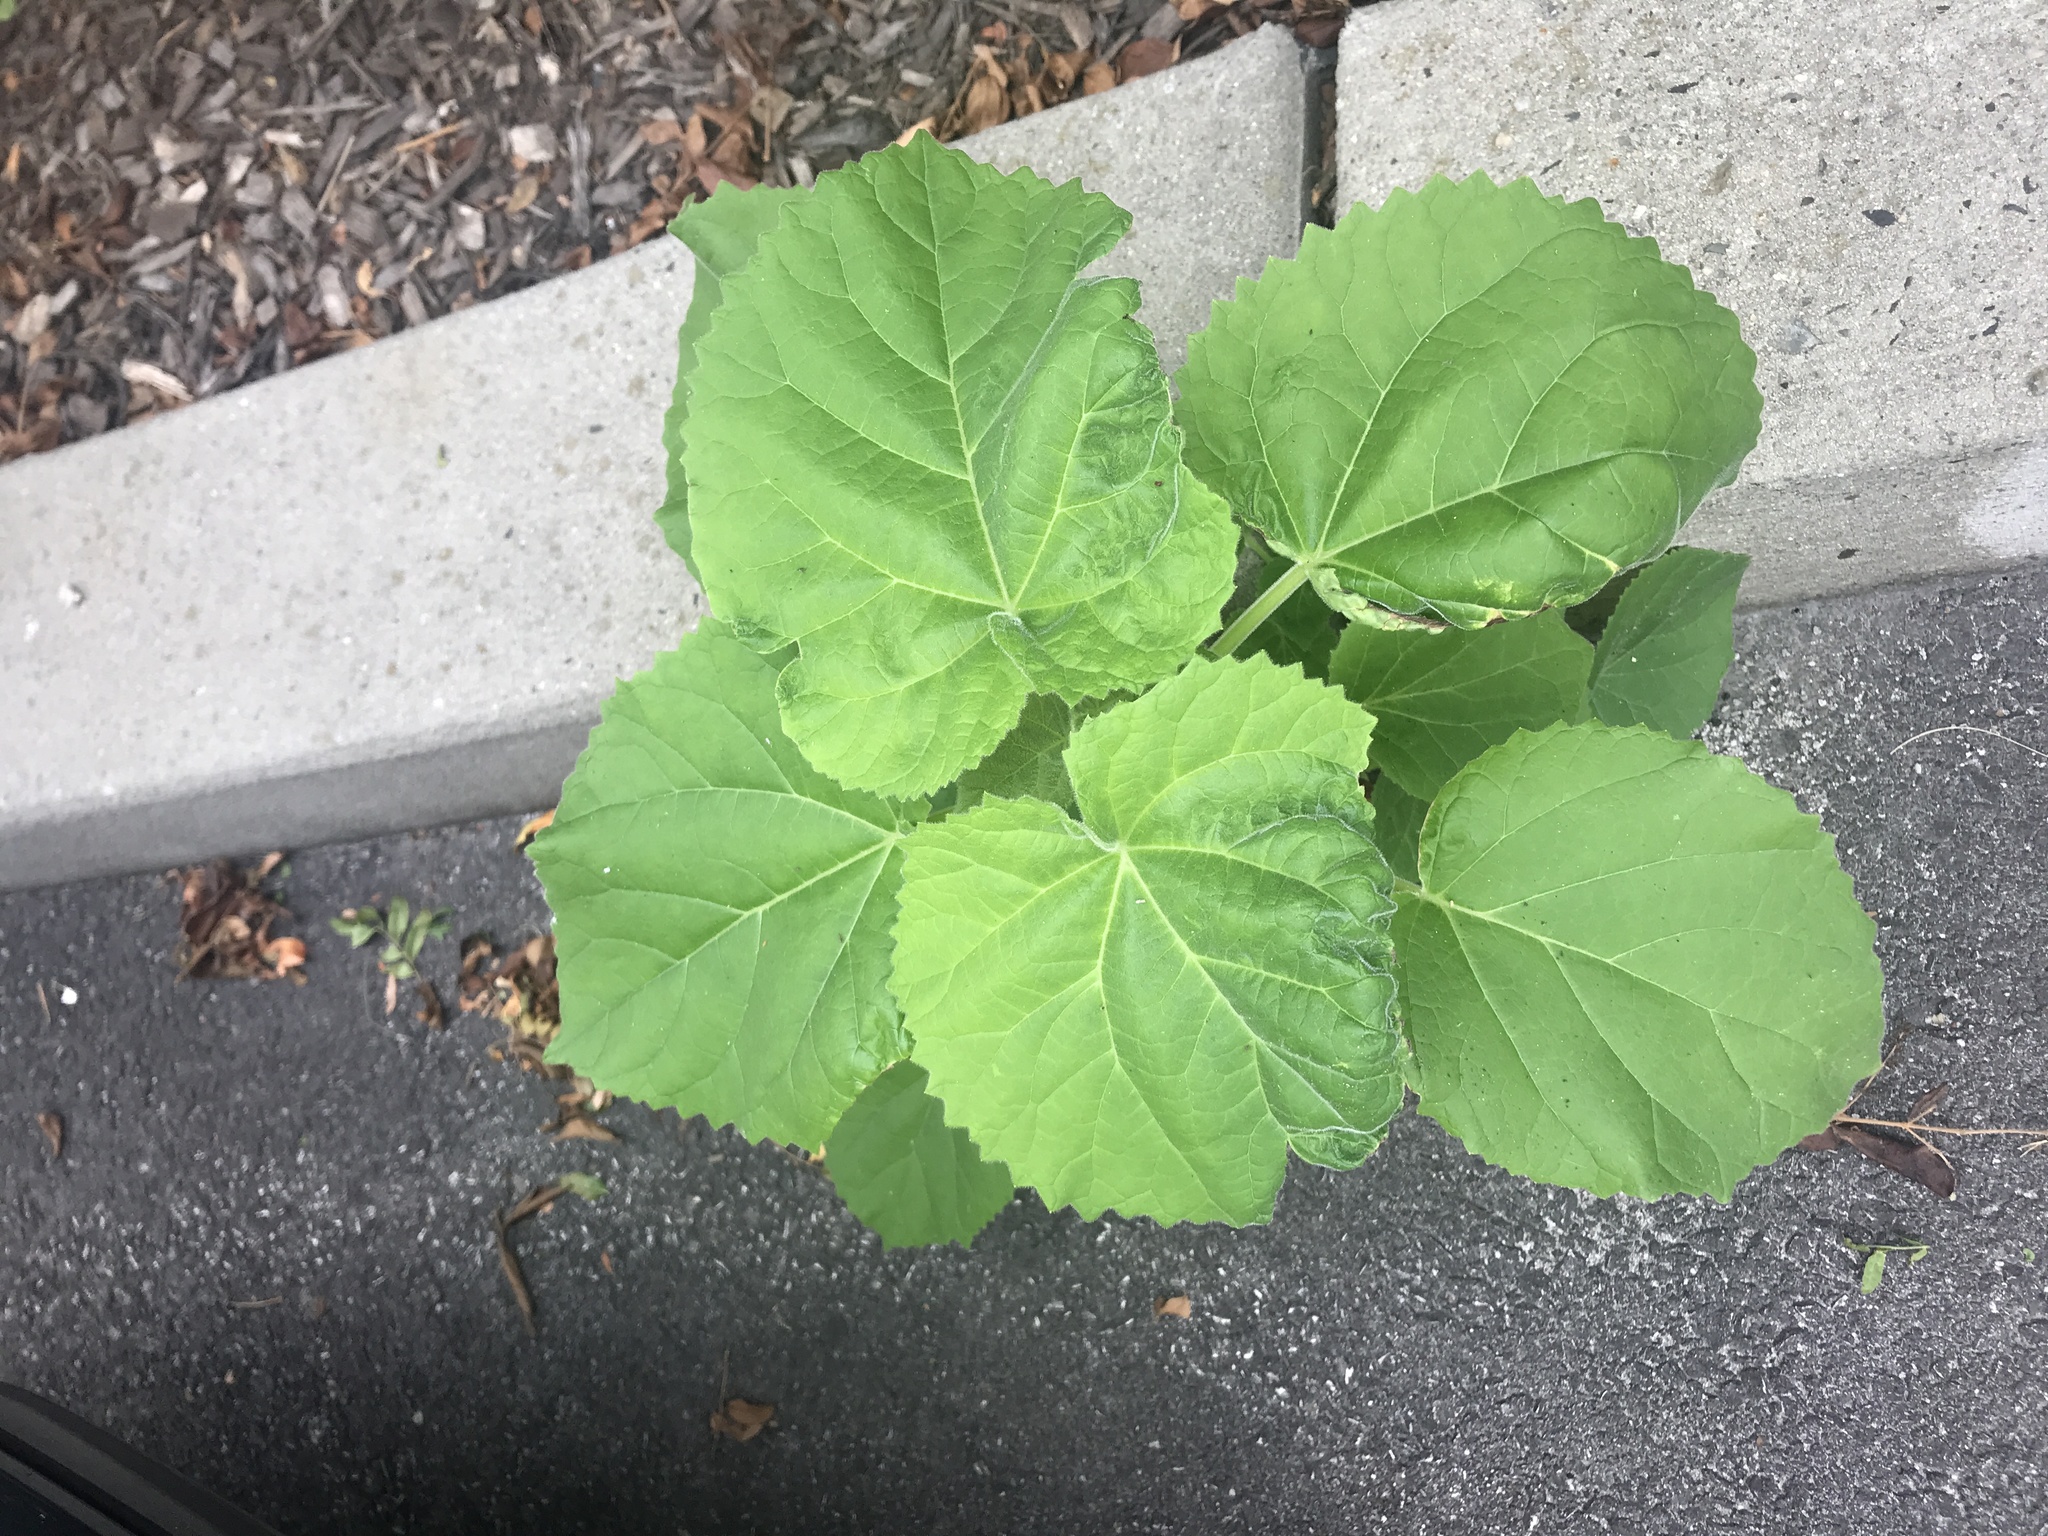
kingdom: Plantae
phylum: Tracheophyta
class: Magnoliopsida
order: Lamiales
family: Paulowniaceae
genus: Paulownia
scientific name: Paulownia tomentosa
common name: Foxglove-tree
